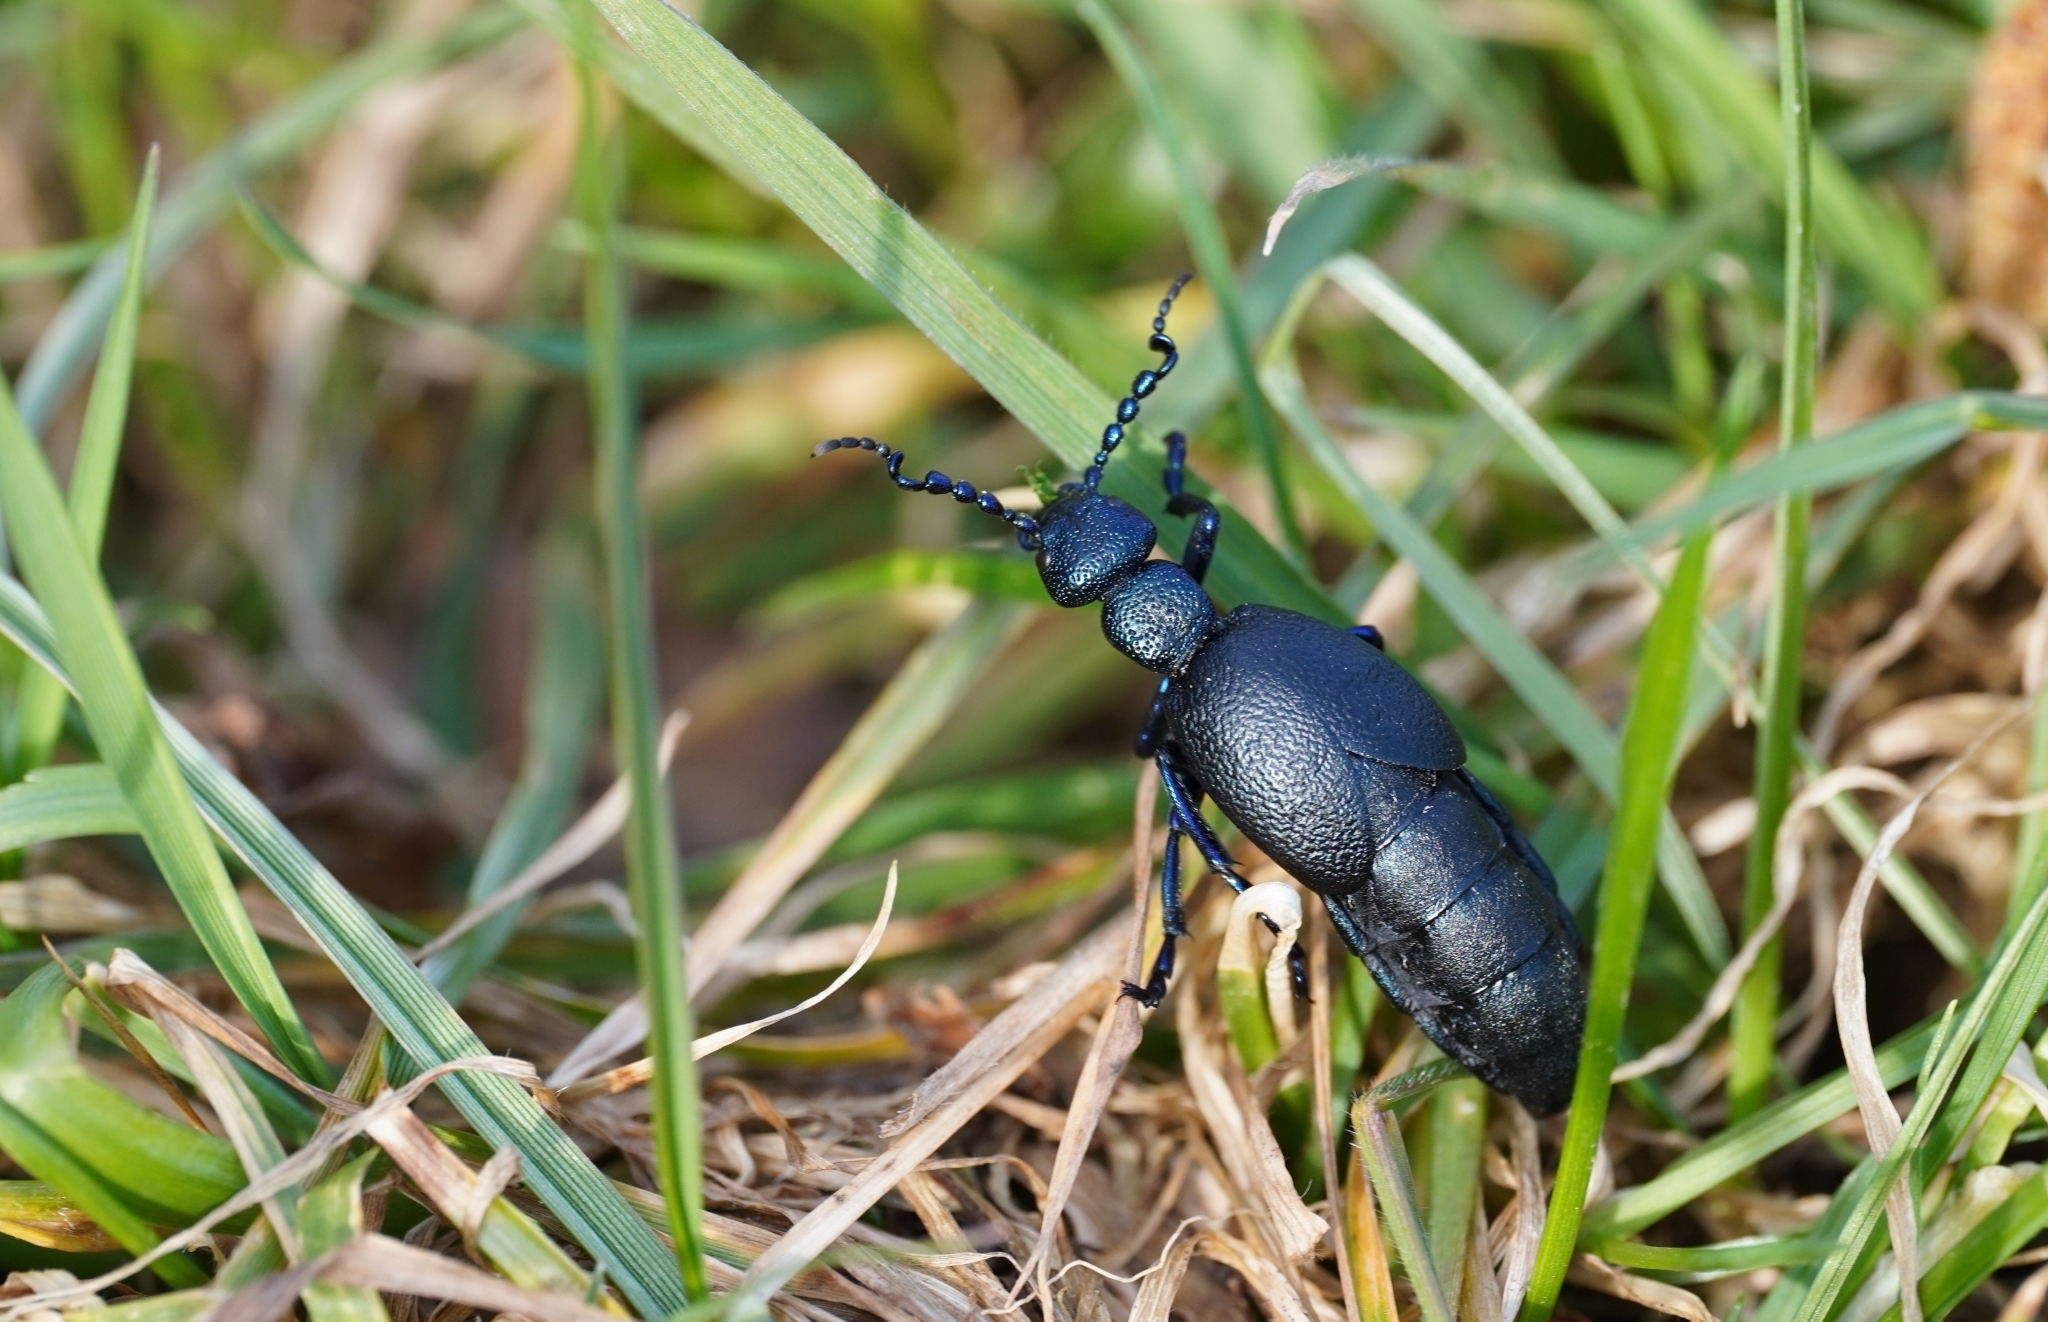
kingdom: Animalia
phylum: Arthropoda
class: Insecta
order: Coleoptera
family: Meloidae
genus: Meloe
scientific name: Meloe proscarabaeus
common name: Black oil-beetle
